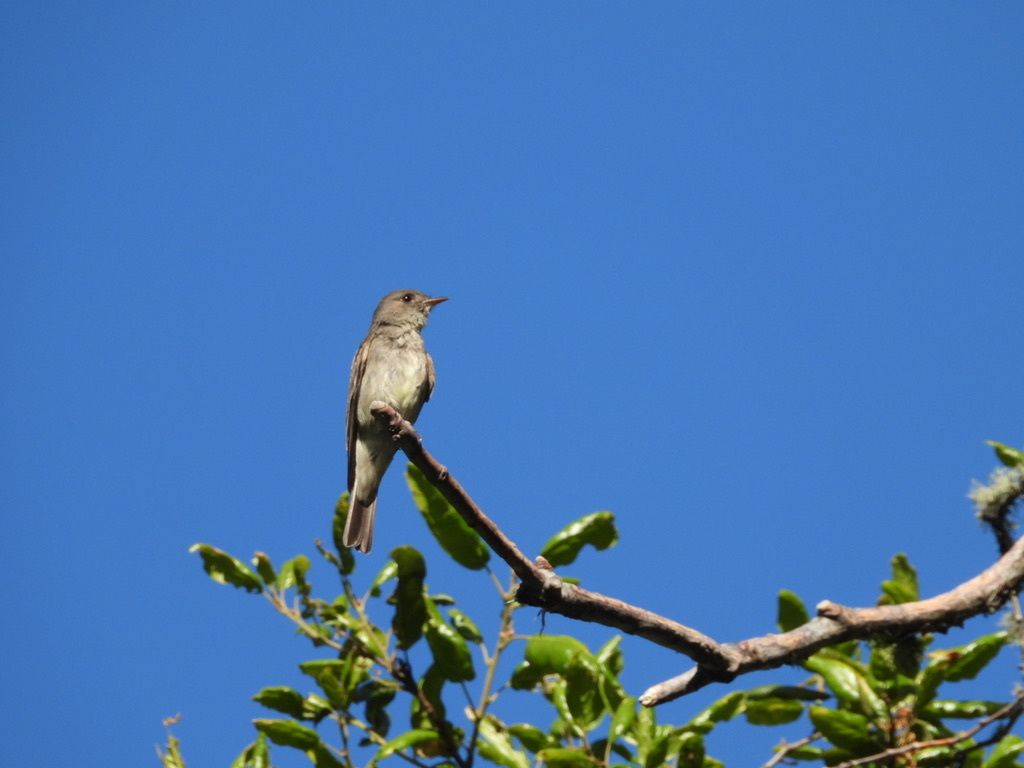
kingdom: Animalia
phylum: Chordata
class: Aves
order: Passeriformes
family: Tyrannidae
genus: Empidonax
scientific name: Empidonax traillii
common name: Willow flycatcher
